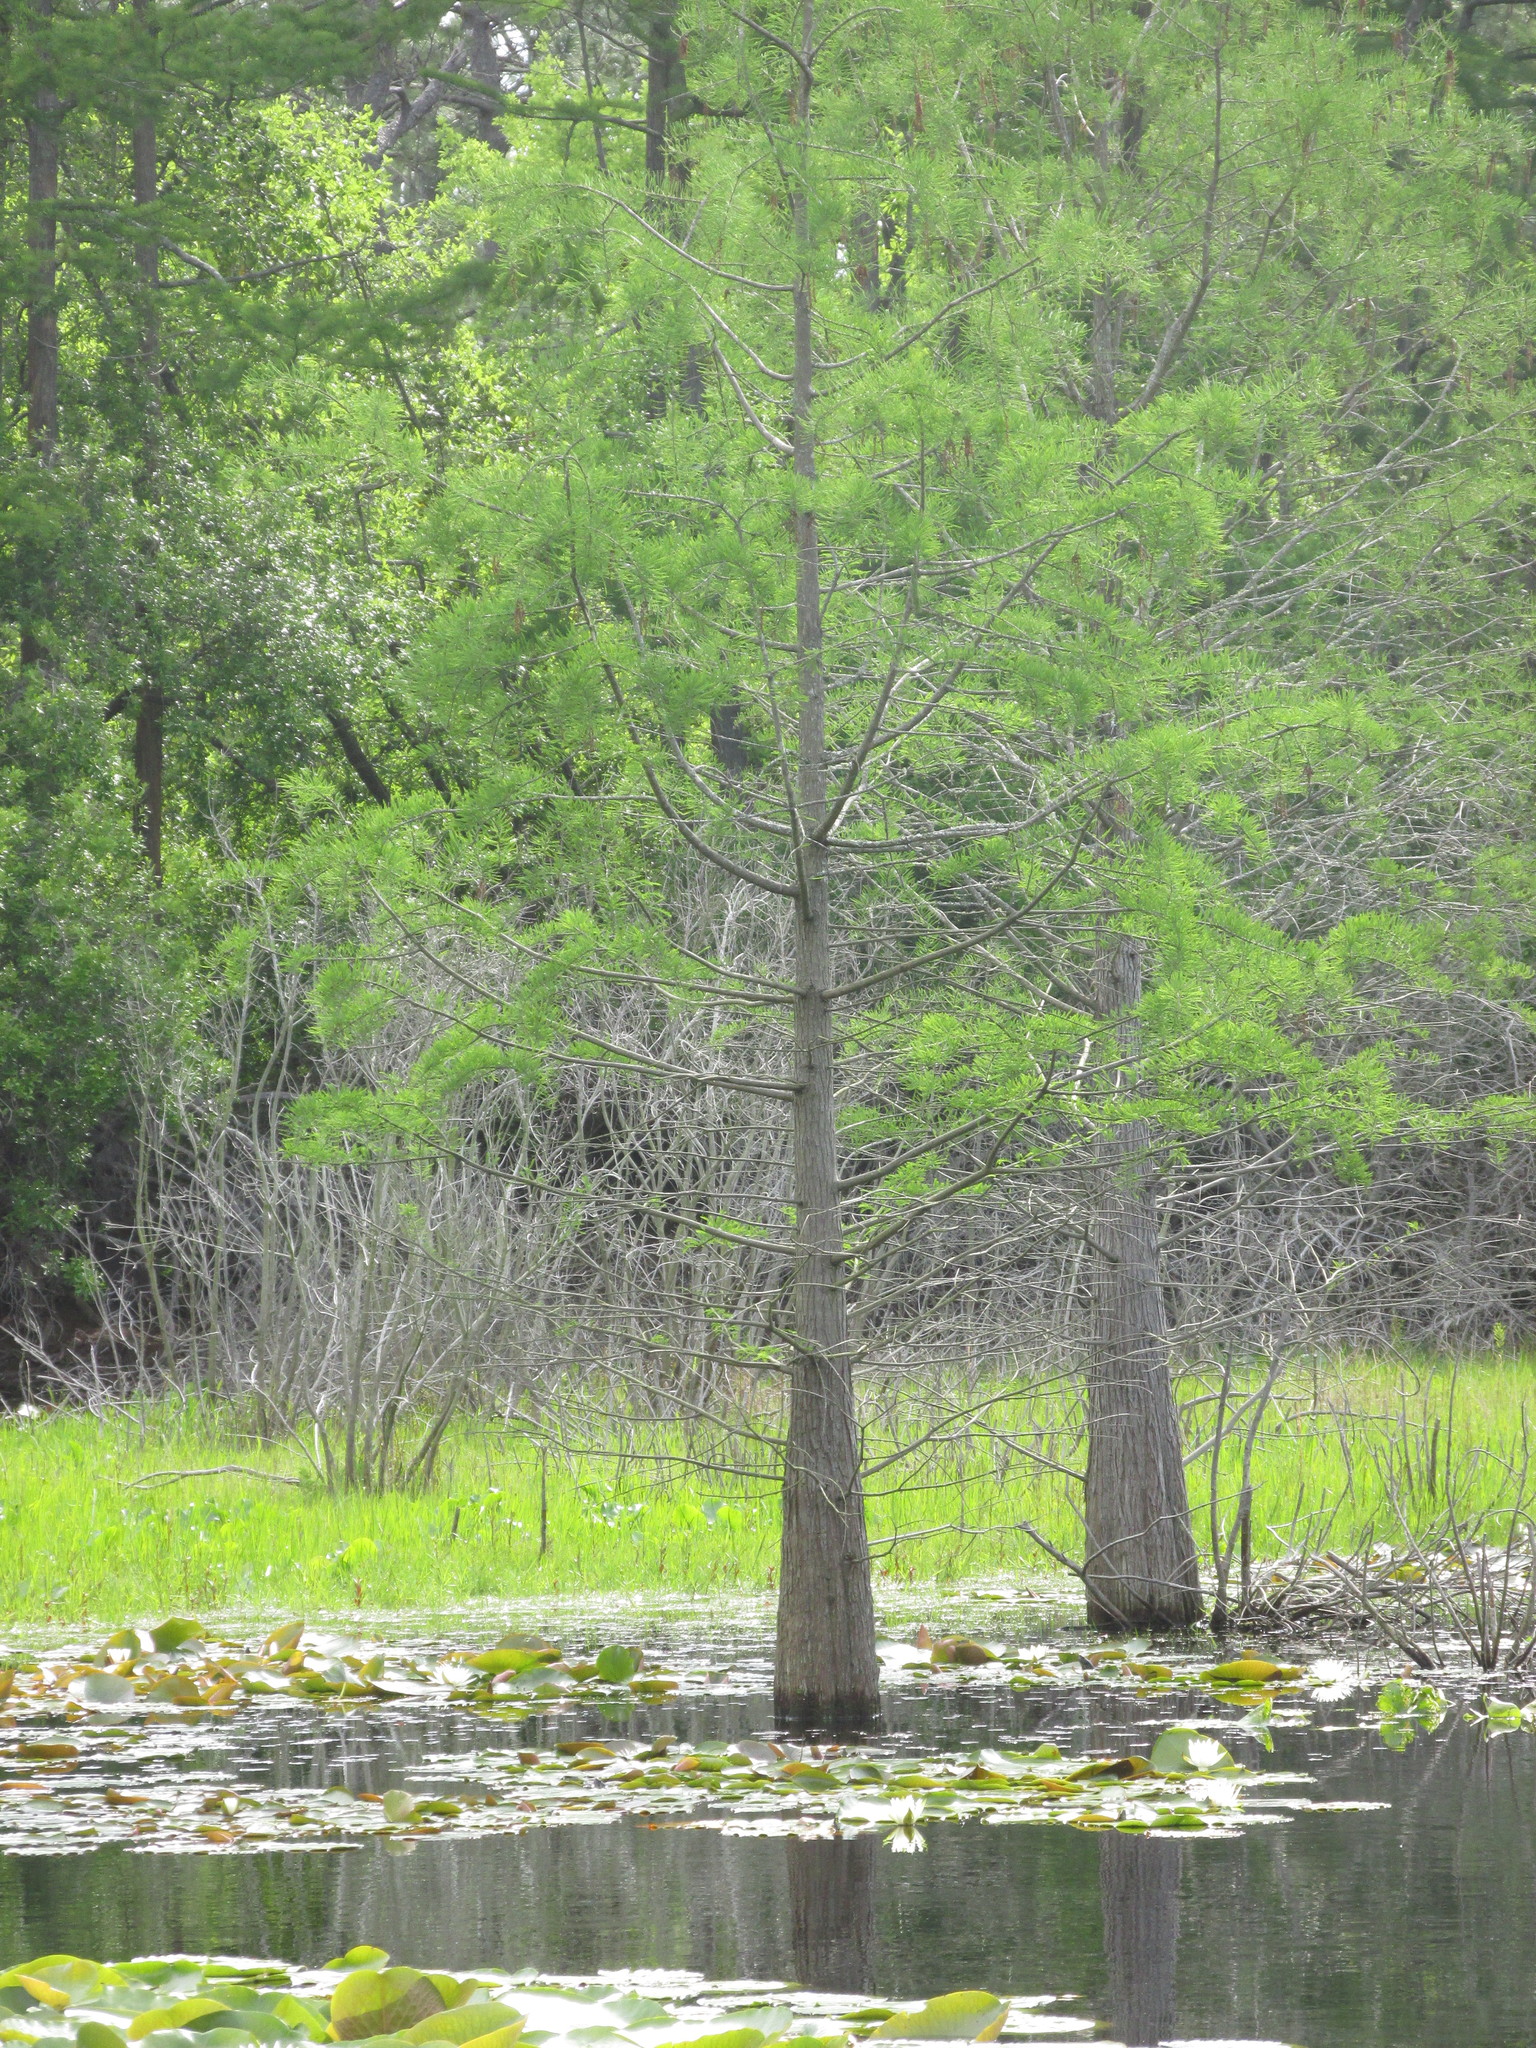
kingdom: Plantae
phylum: Tracheophyta
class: Pinopsida
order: Pinales
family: Cupressaceae
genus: Taxodium
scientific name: Taxodium distichum
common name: Bald cypress
